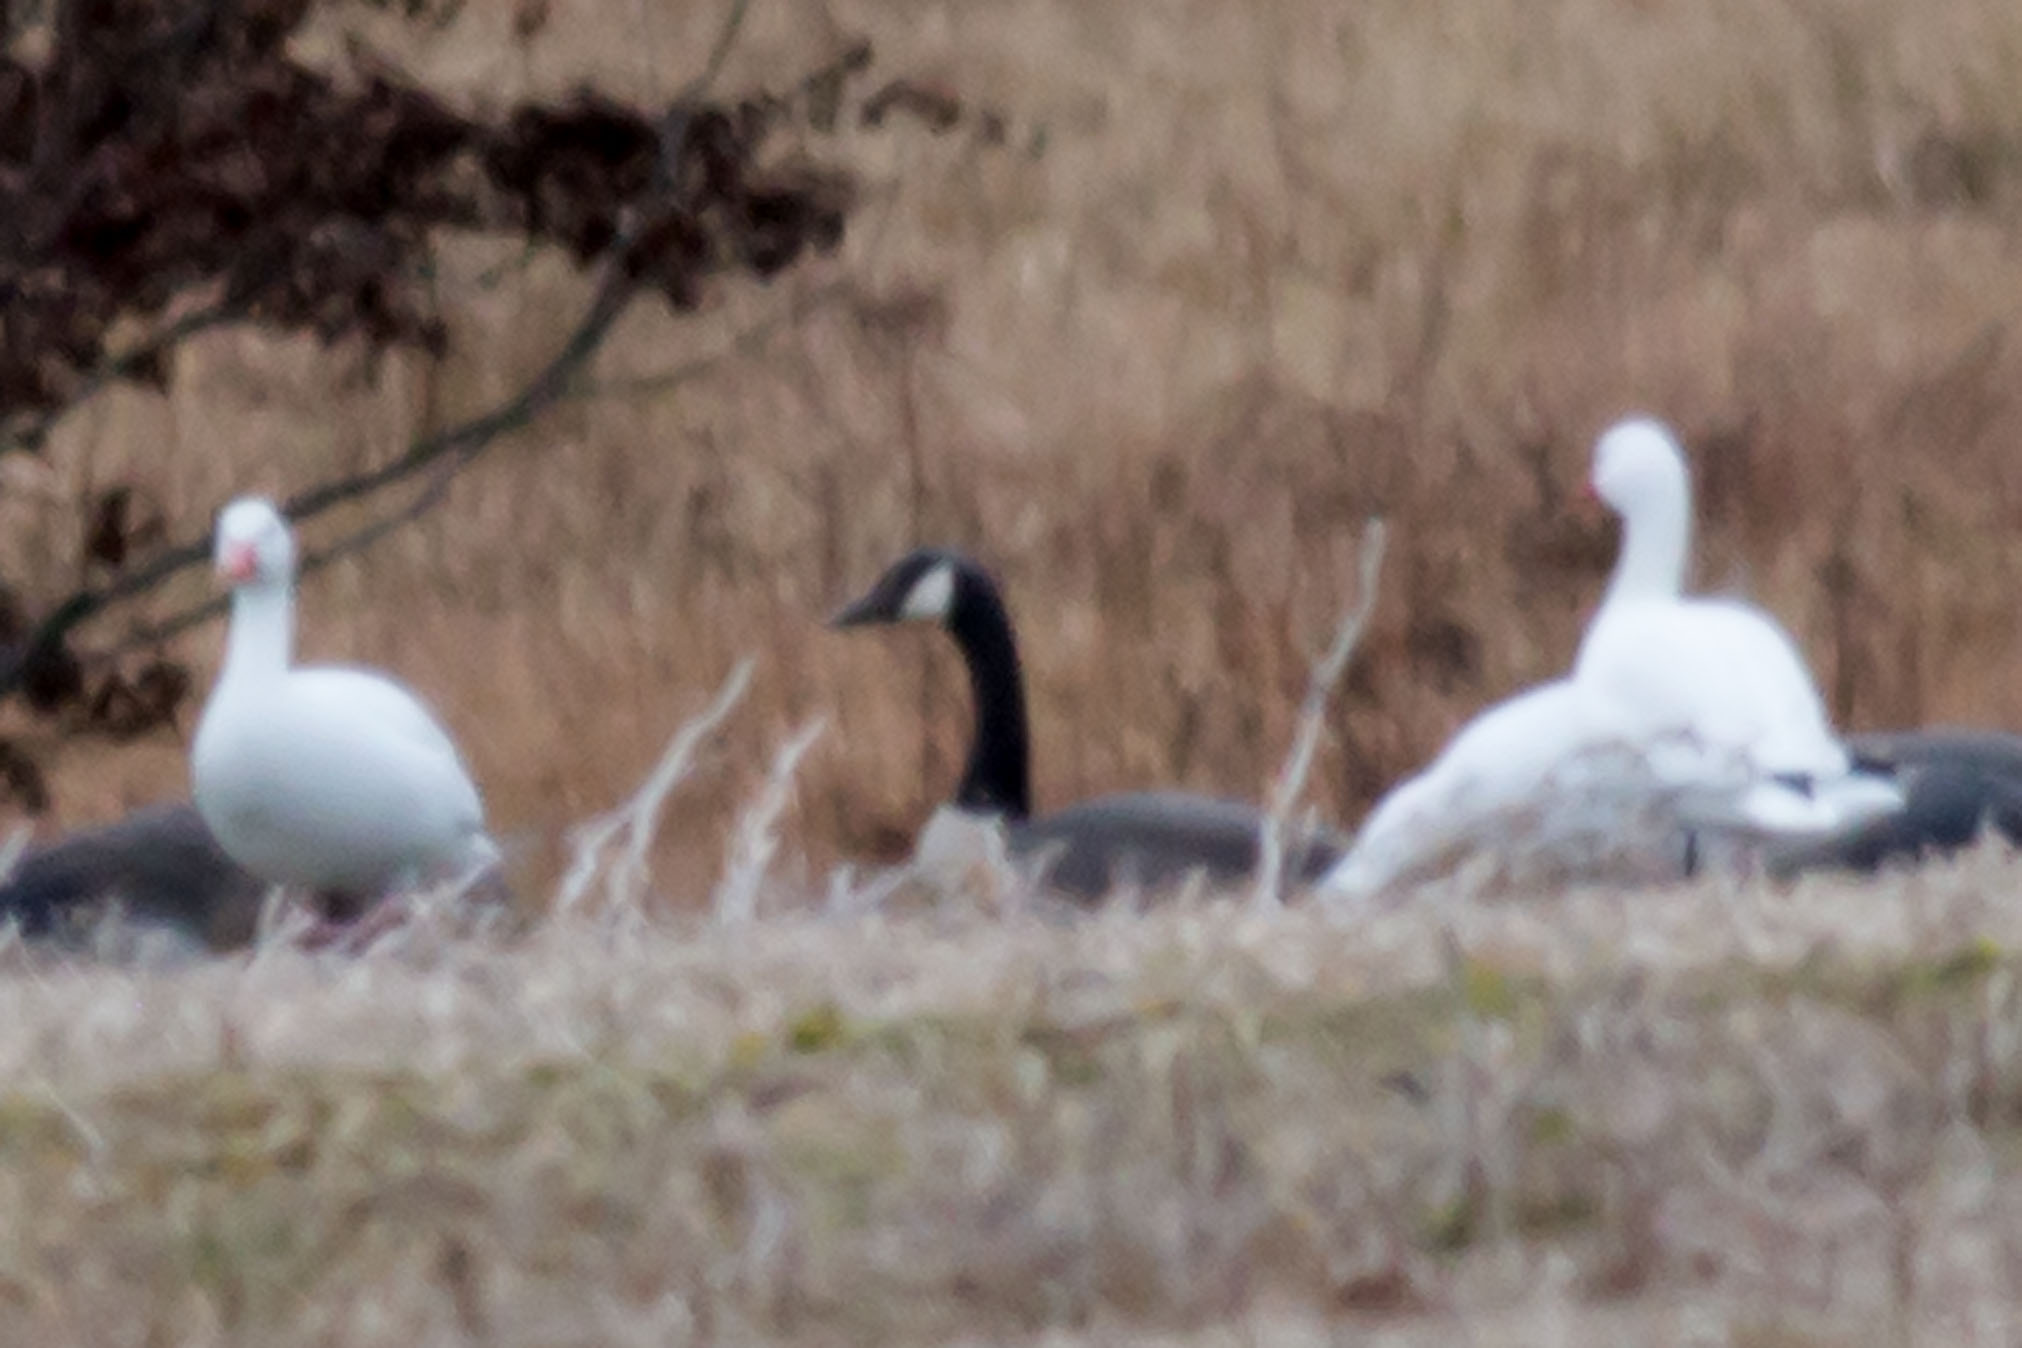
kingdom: Animalia
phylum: Chordata
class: Aves
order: Anseriformes
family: Anatidae
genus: Branta
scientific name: Branta canadensis
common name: Canada goose
